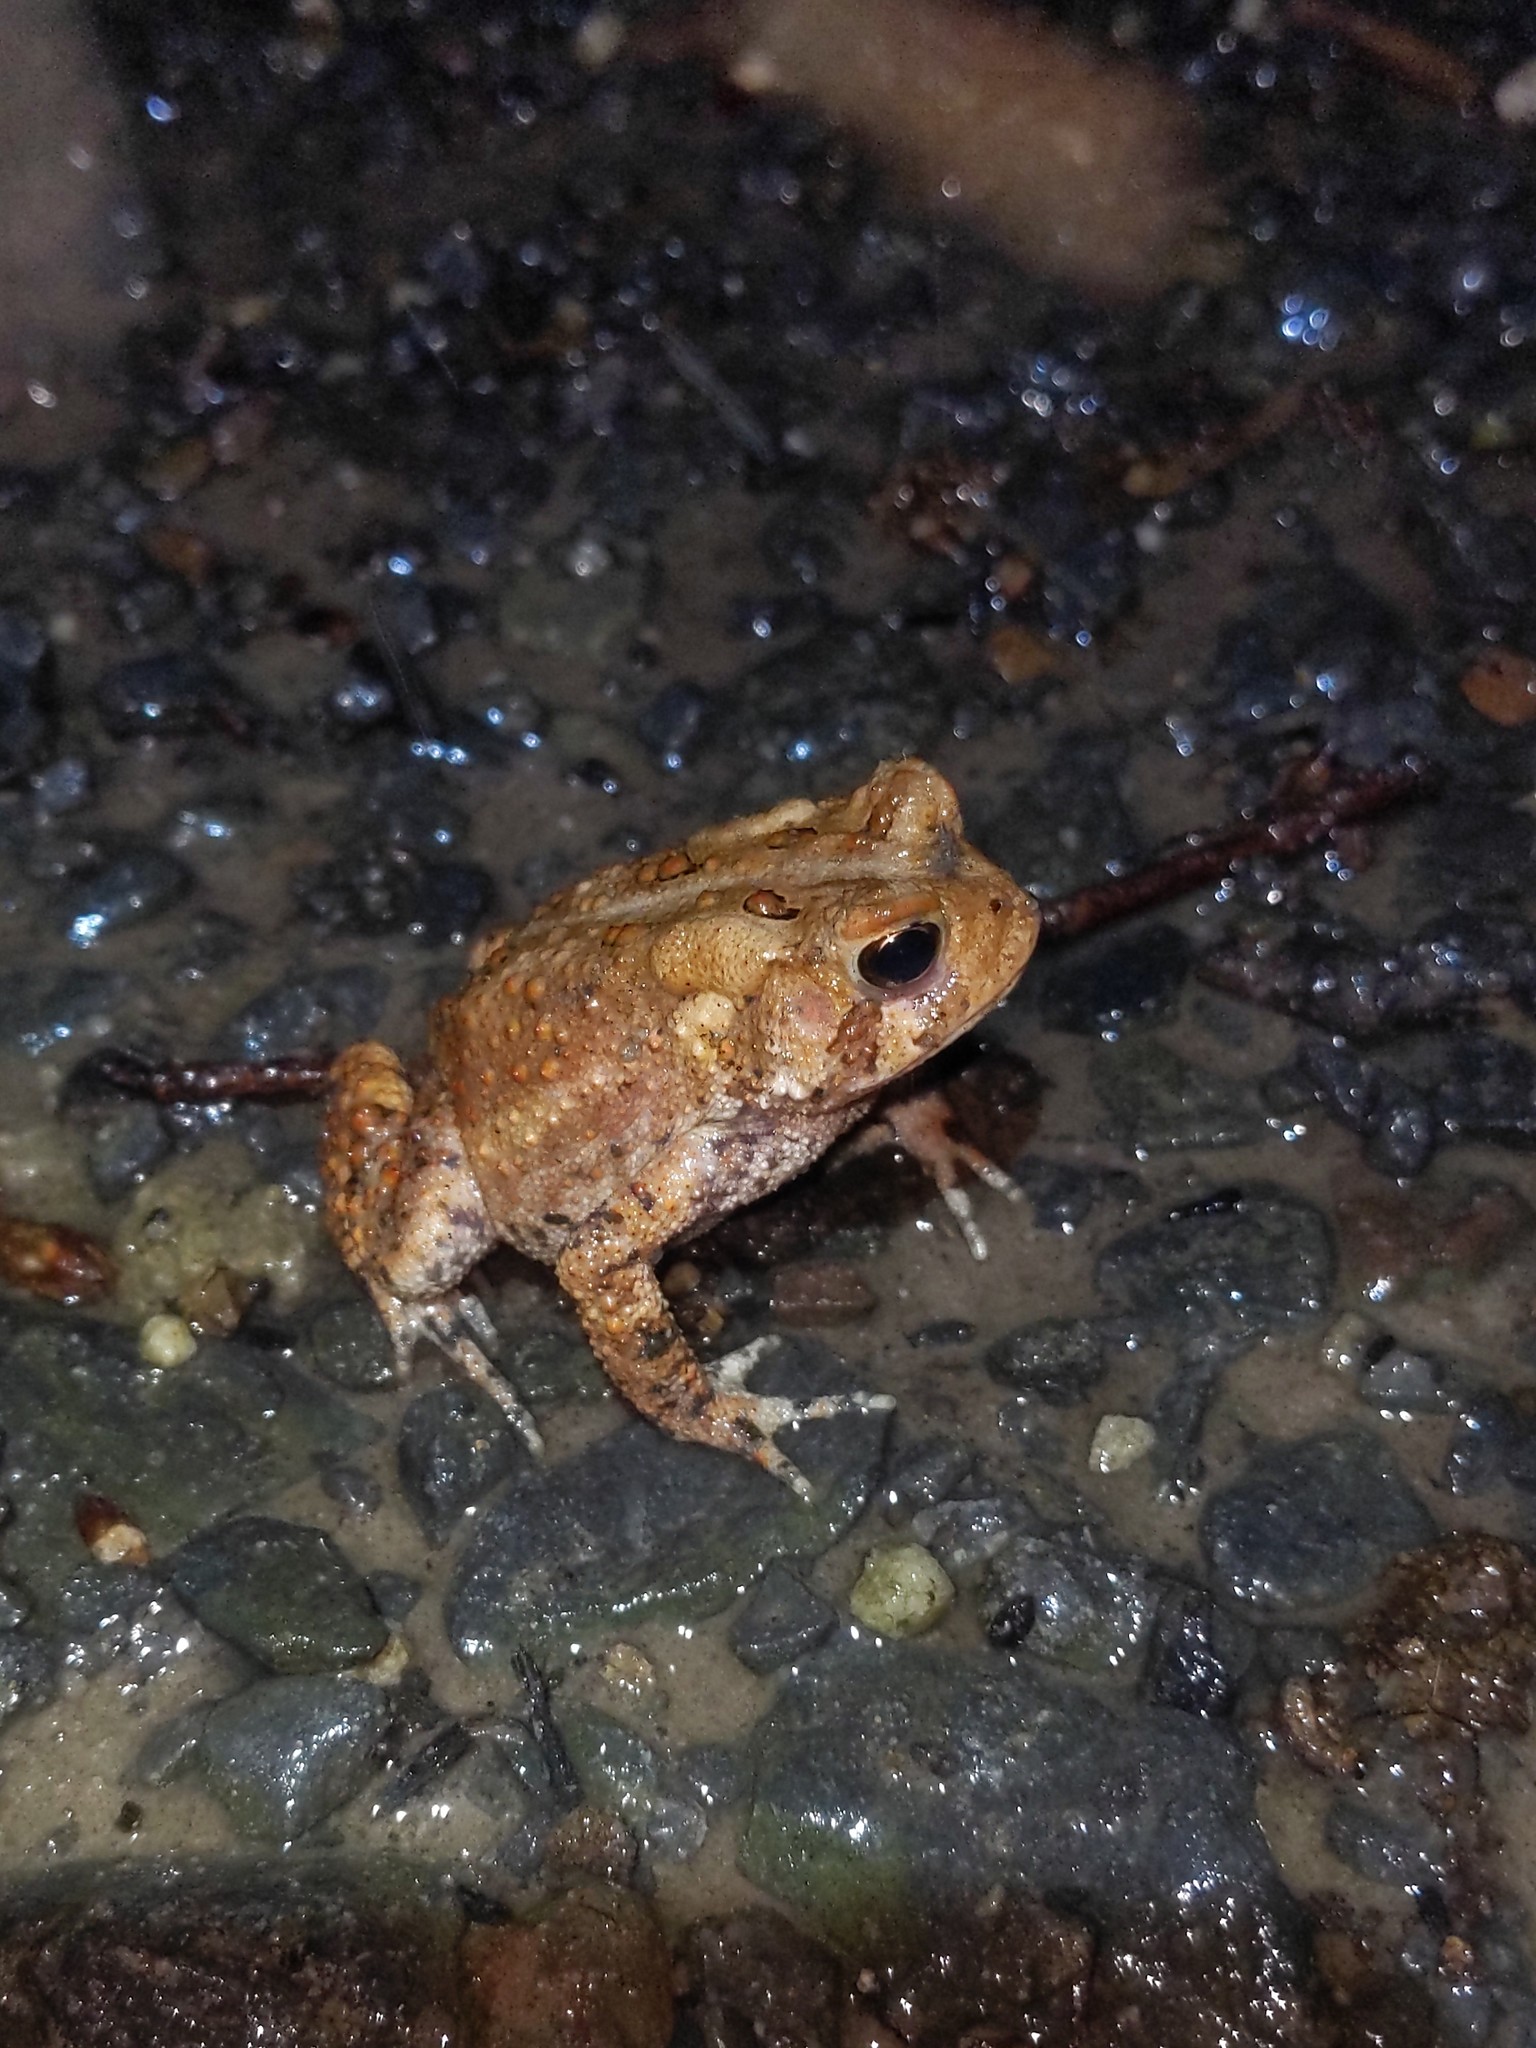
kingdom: Animalia
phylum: Chordata
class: Amphibia
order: Anura
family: Bufonidae
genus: Anaxyrus
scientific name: Anaxyrus americanus
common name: American toad
